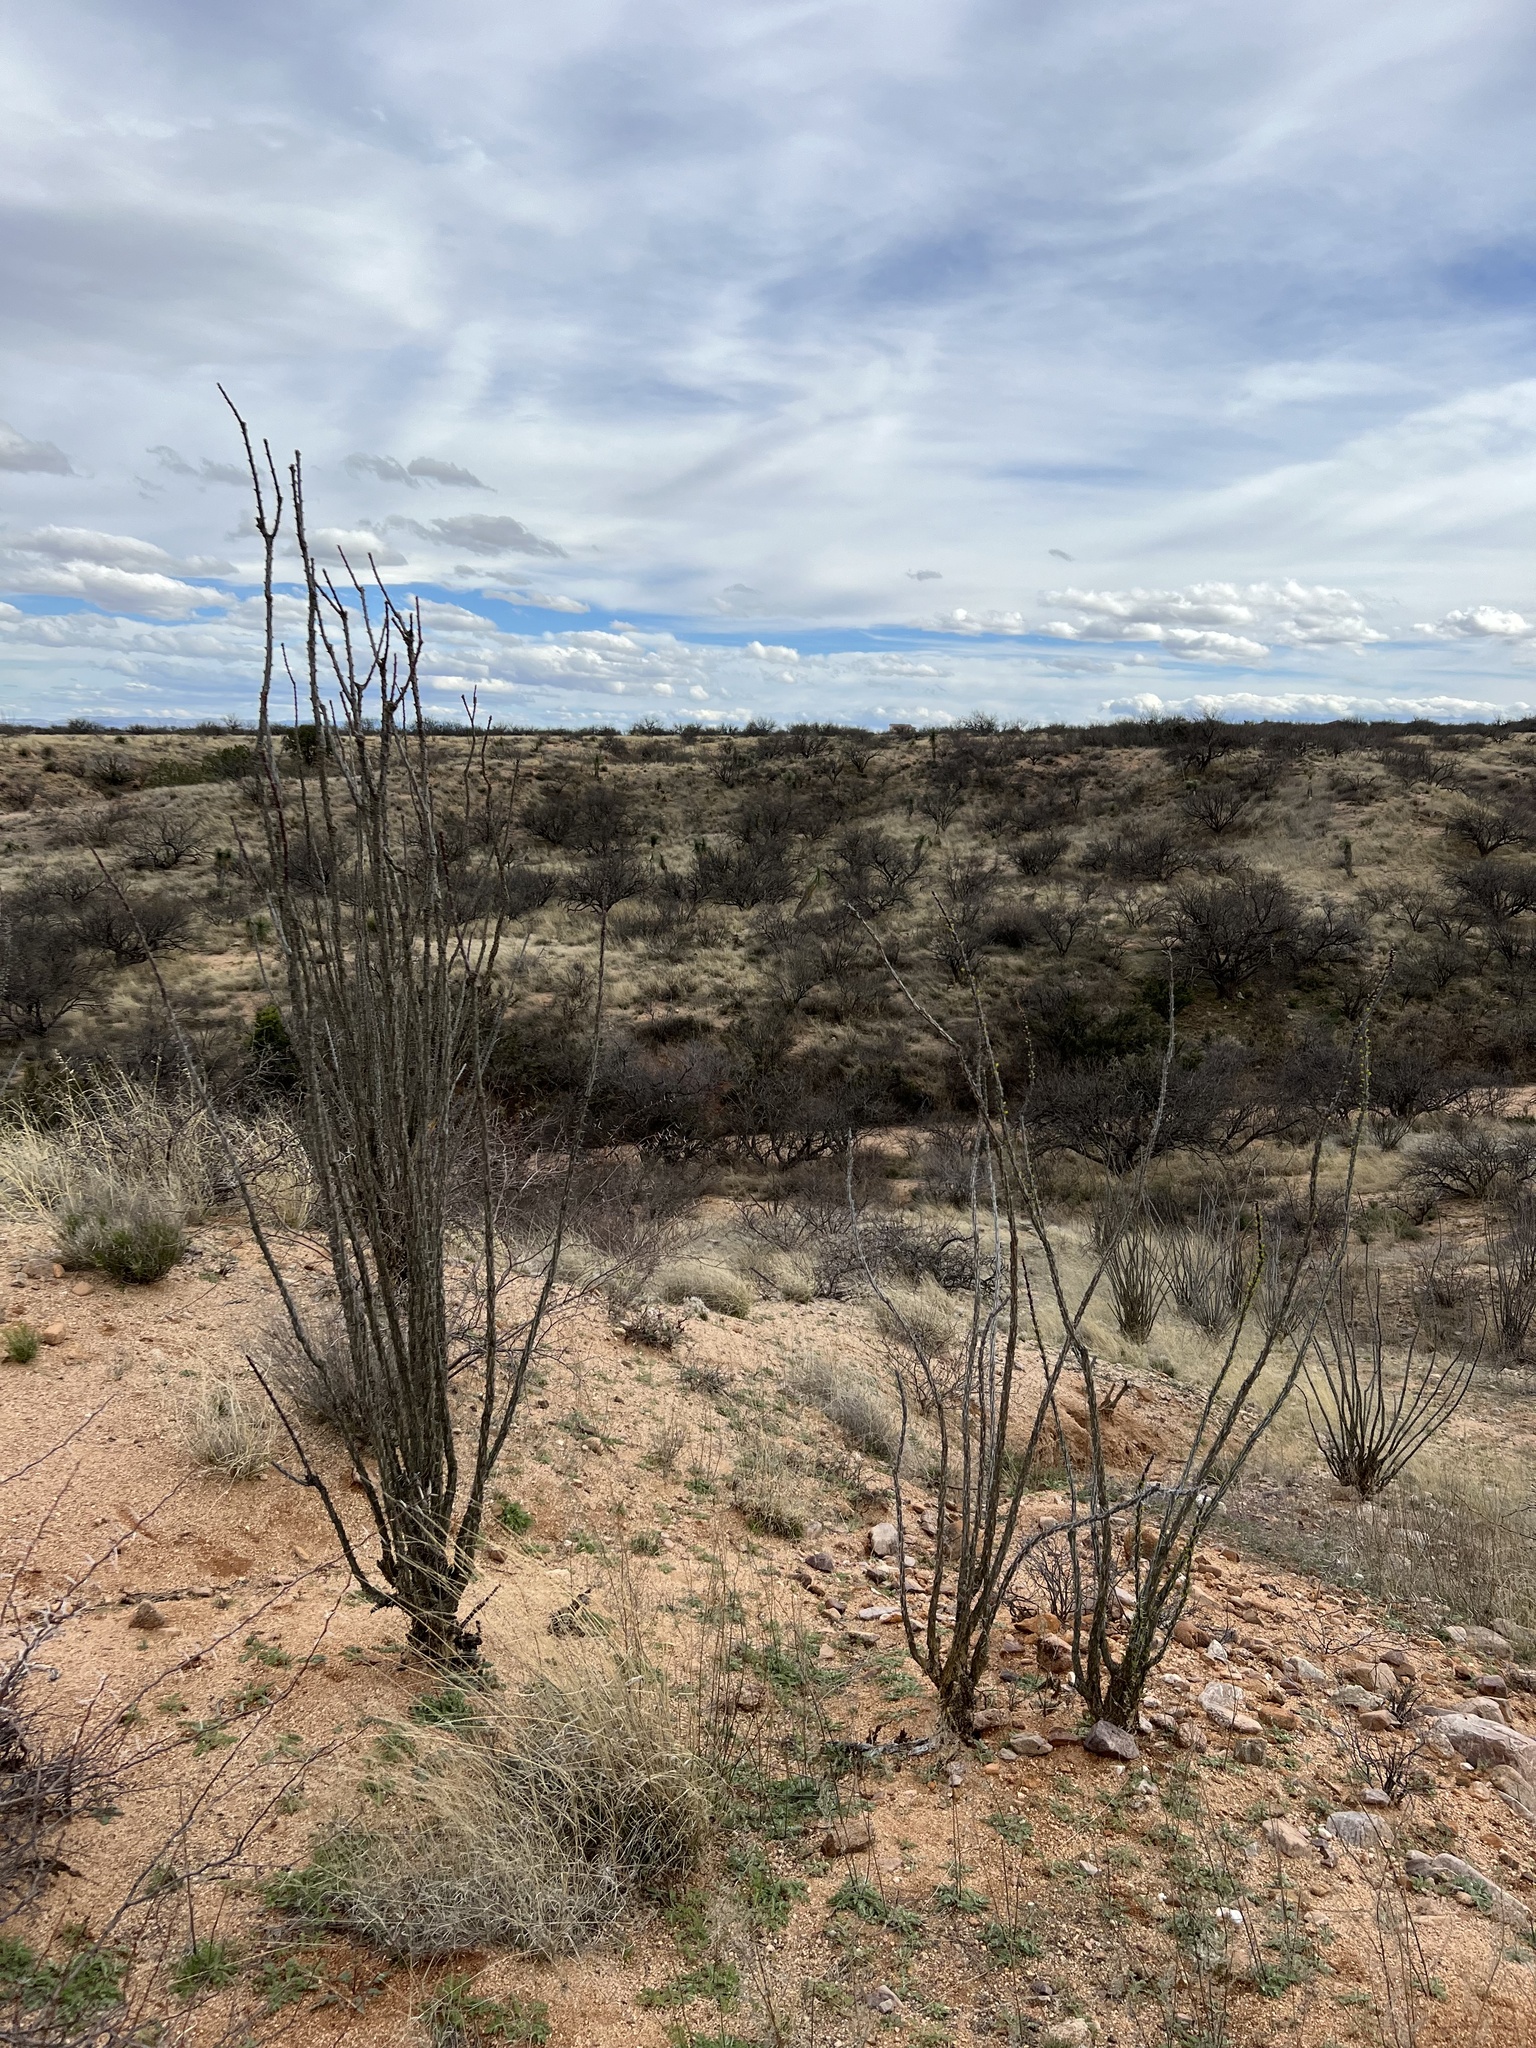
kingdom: Plantae
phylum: Tracheophyta
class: Magnoliopsida
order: Ericales
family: Fouquieriaceae
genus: Fouquieria
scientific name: Fouquieria splendens
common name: Vine-cactus
